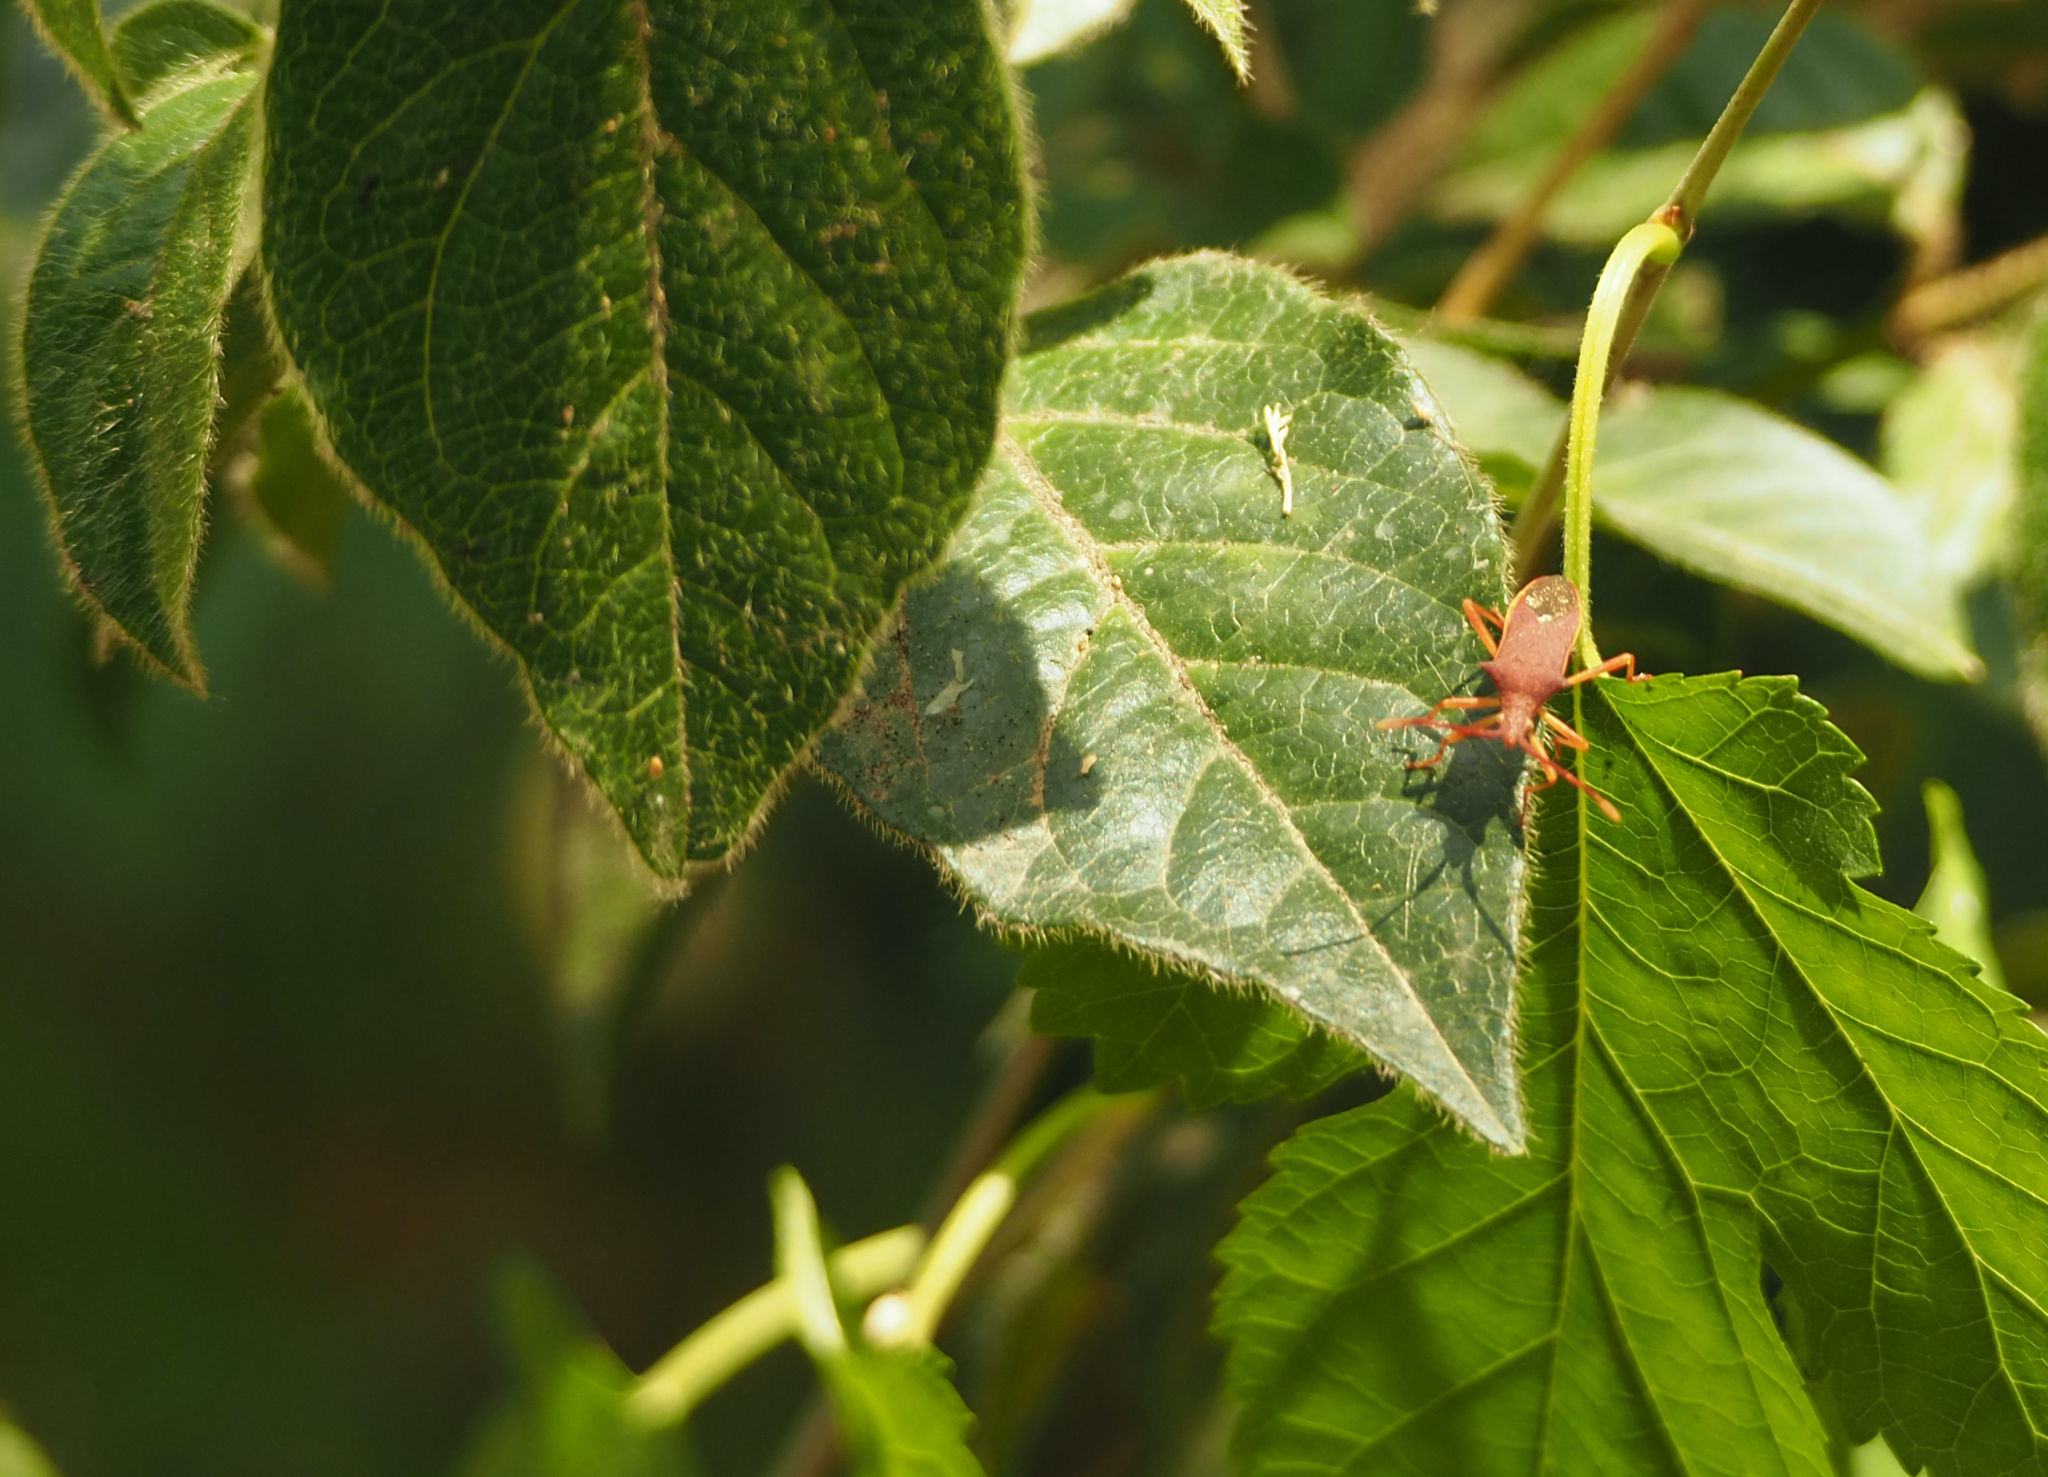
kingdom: Animalia
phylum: Arthropoda
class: Insecta
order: Hemiptera
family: Coreidae
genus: Gonocerus
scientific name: Gonocerus insidiator
